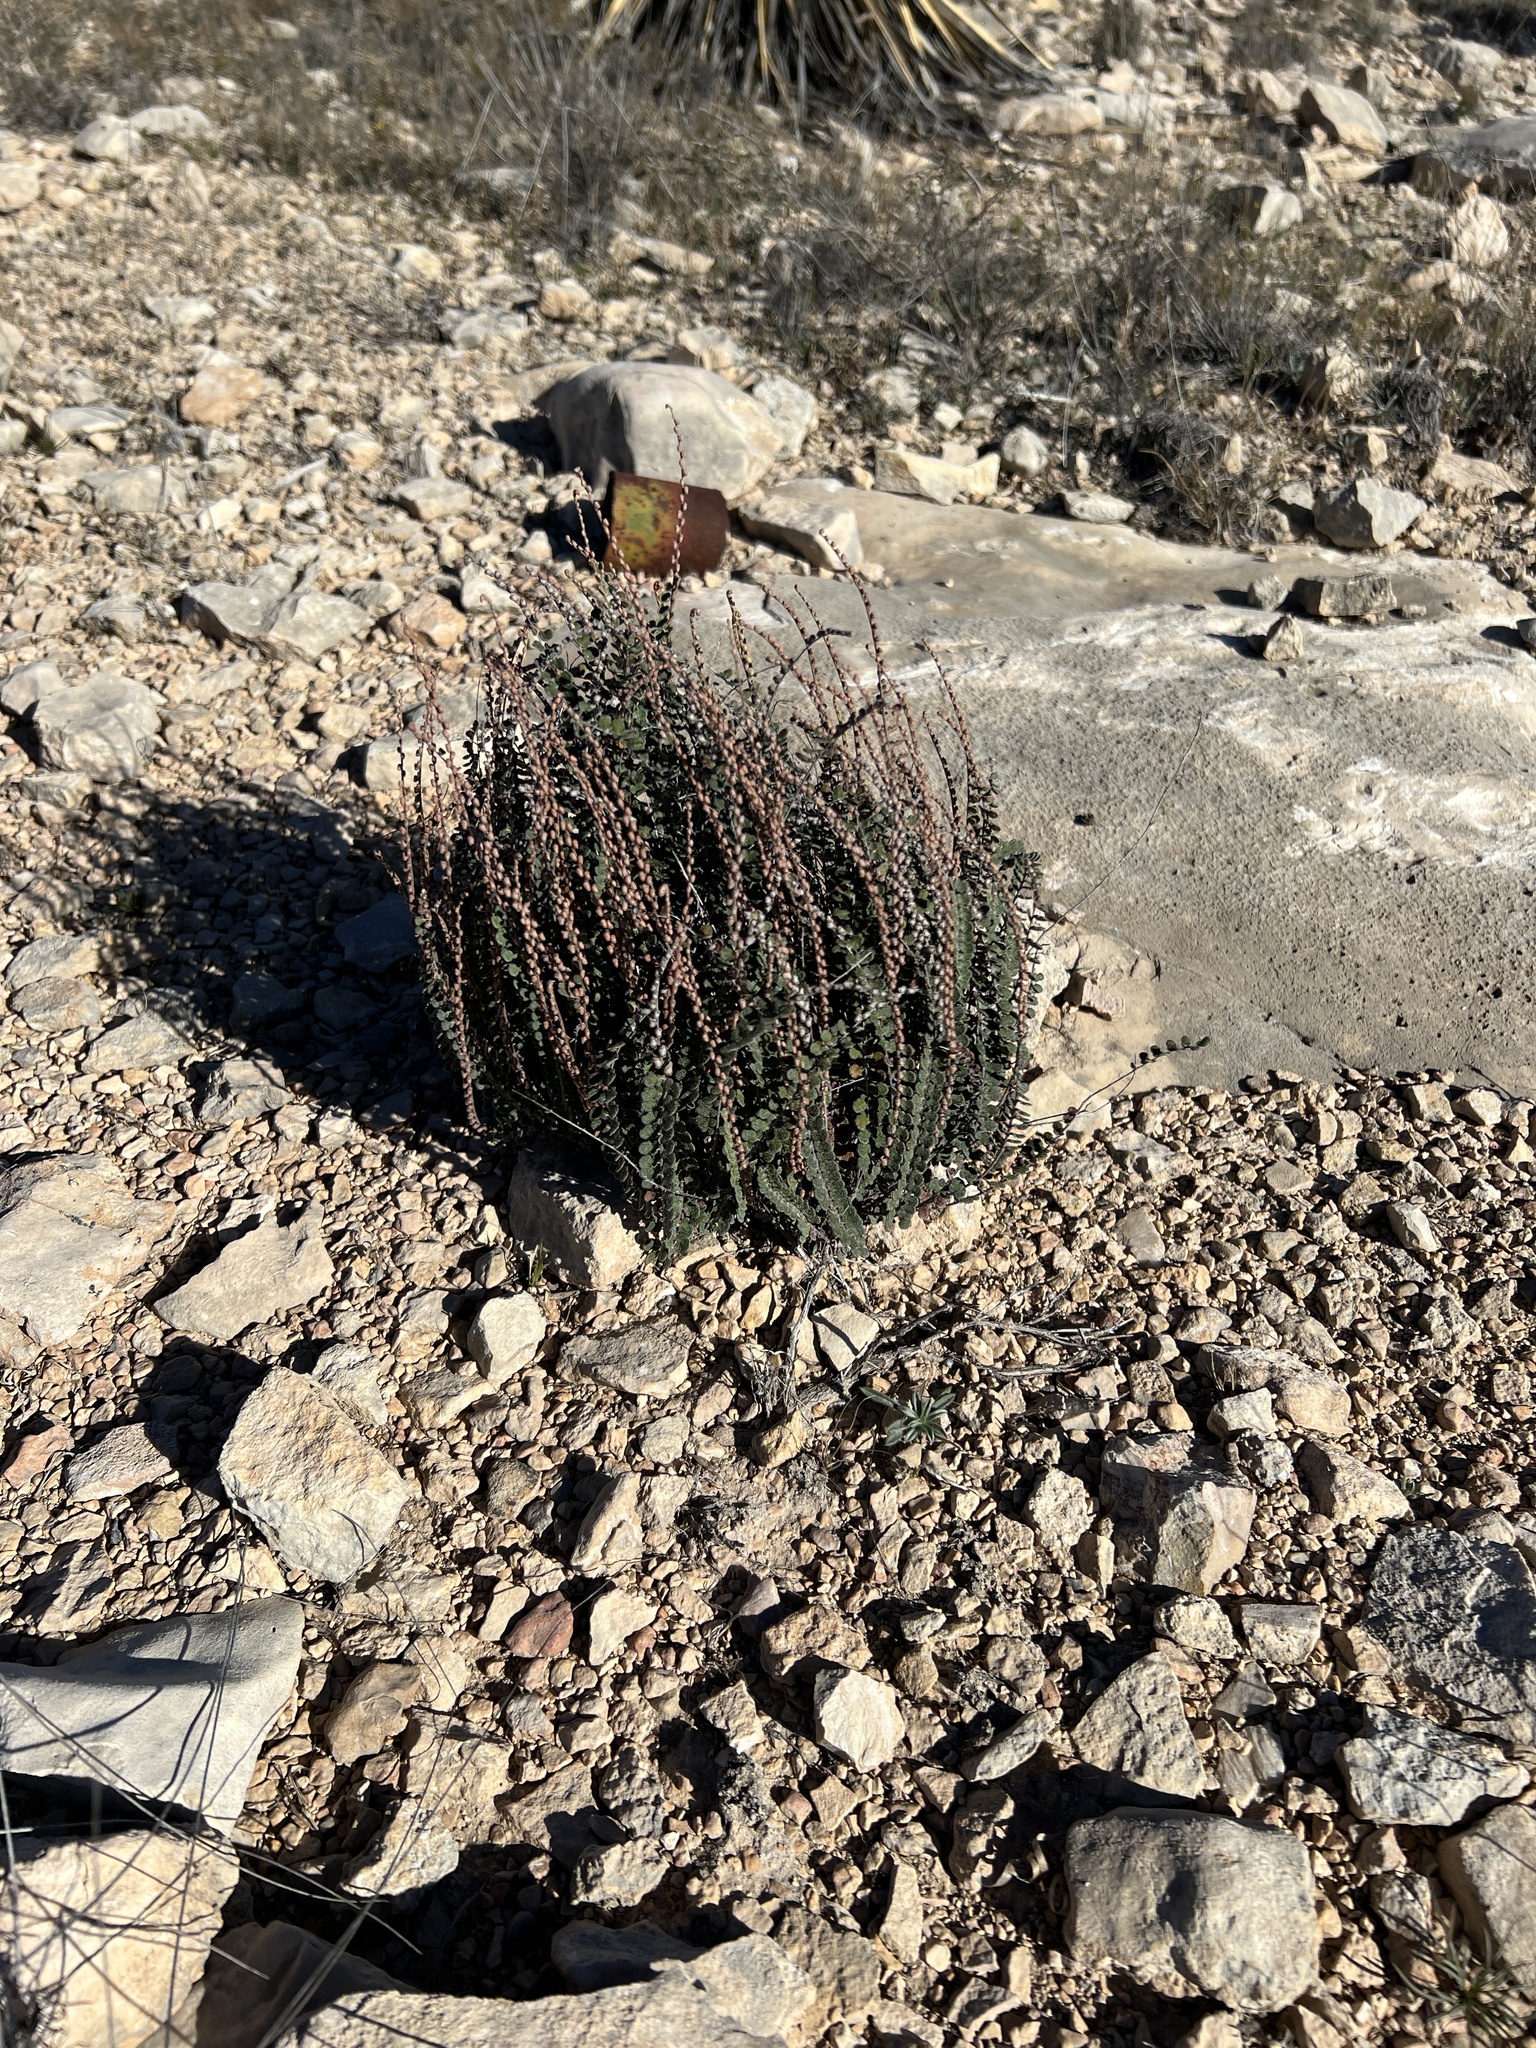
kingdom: Plantae
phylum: Tracheophyta
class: Polypodiopsida
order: Polypodiales
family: Pteridaceae
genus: Astrolepis
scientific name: Astrolepis cochisensis
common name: Scaly cloak fern
